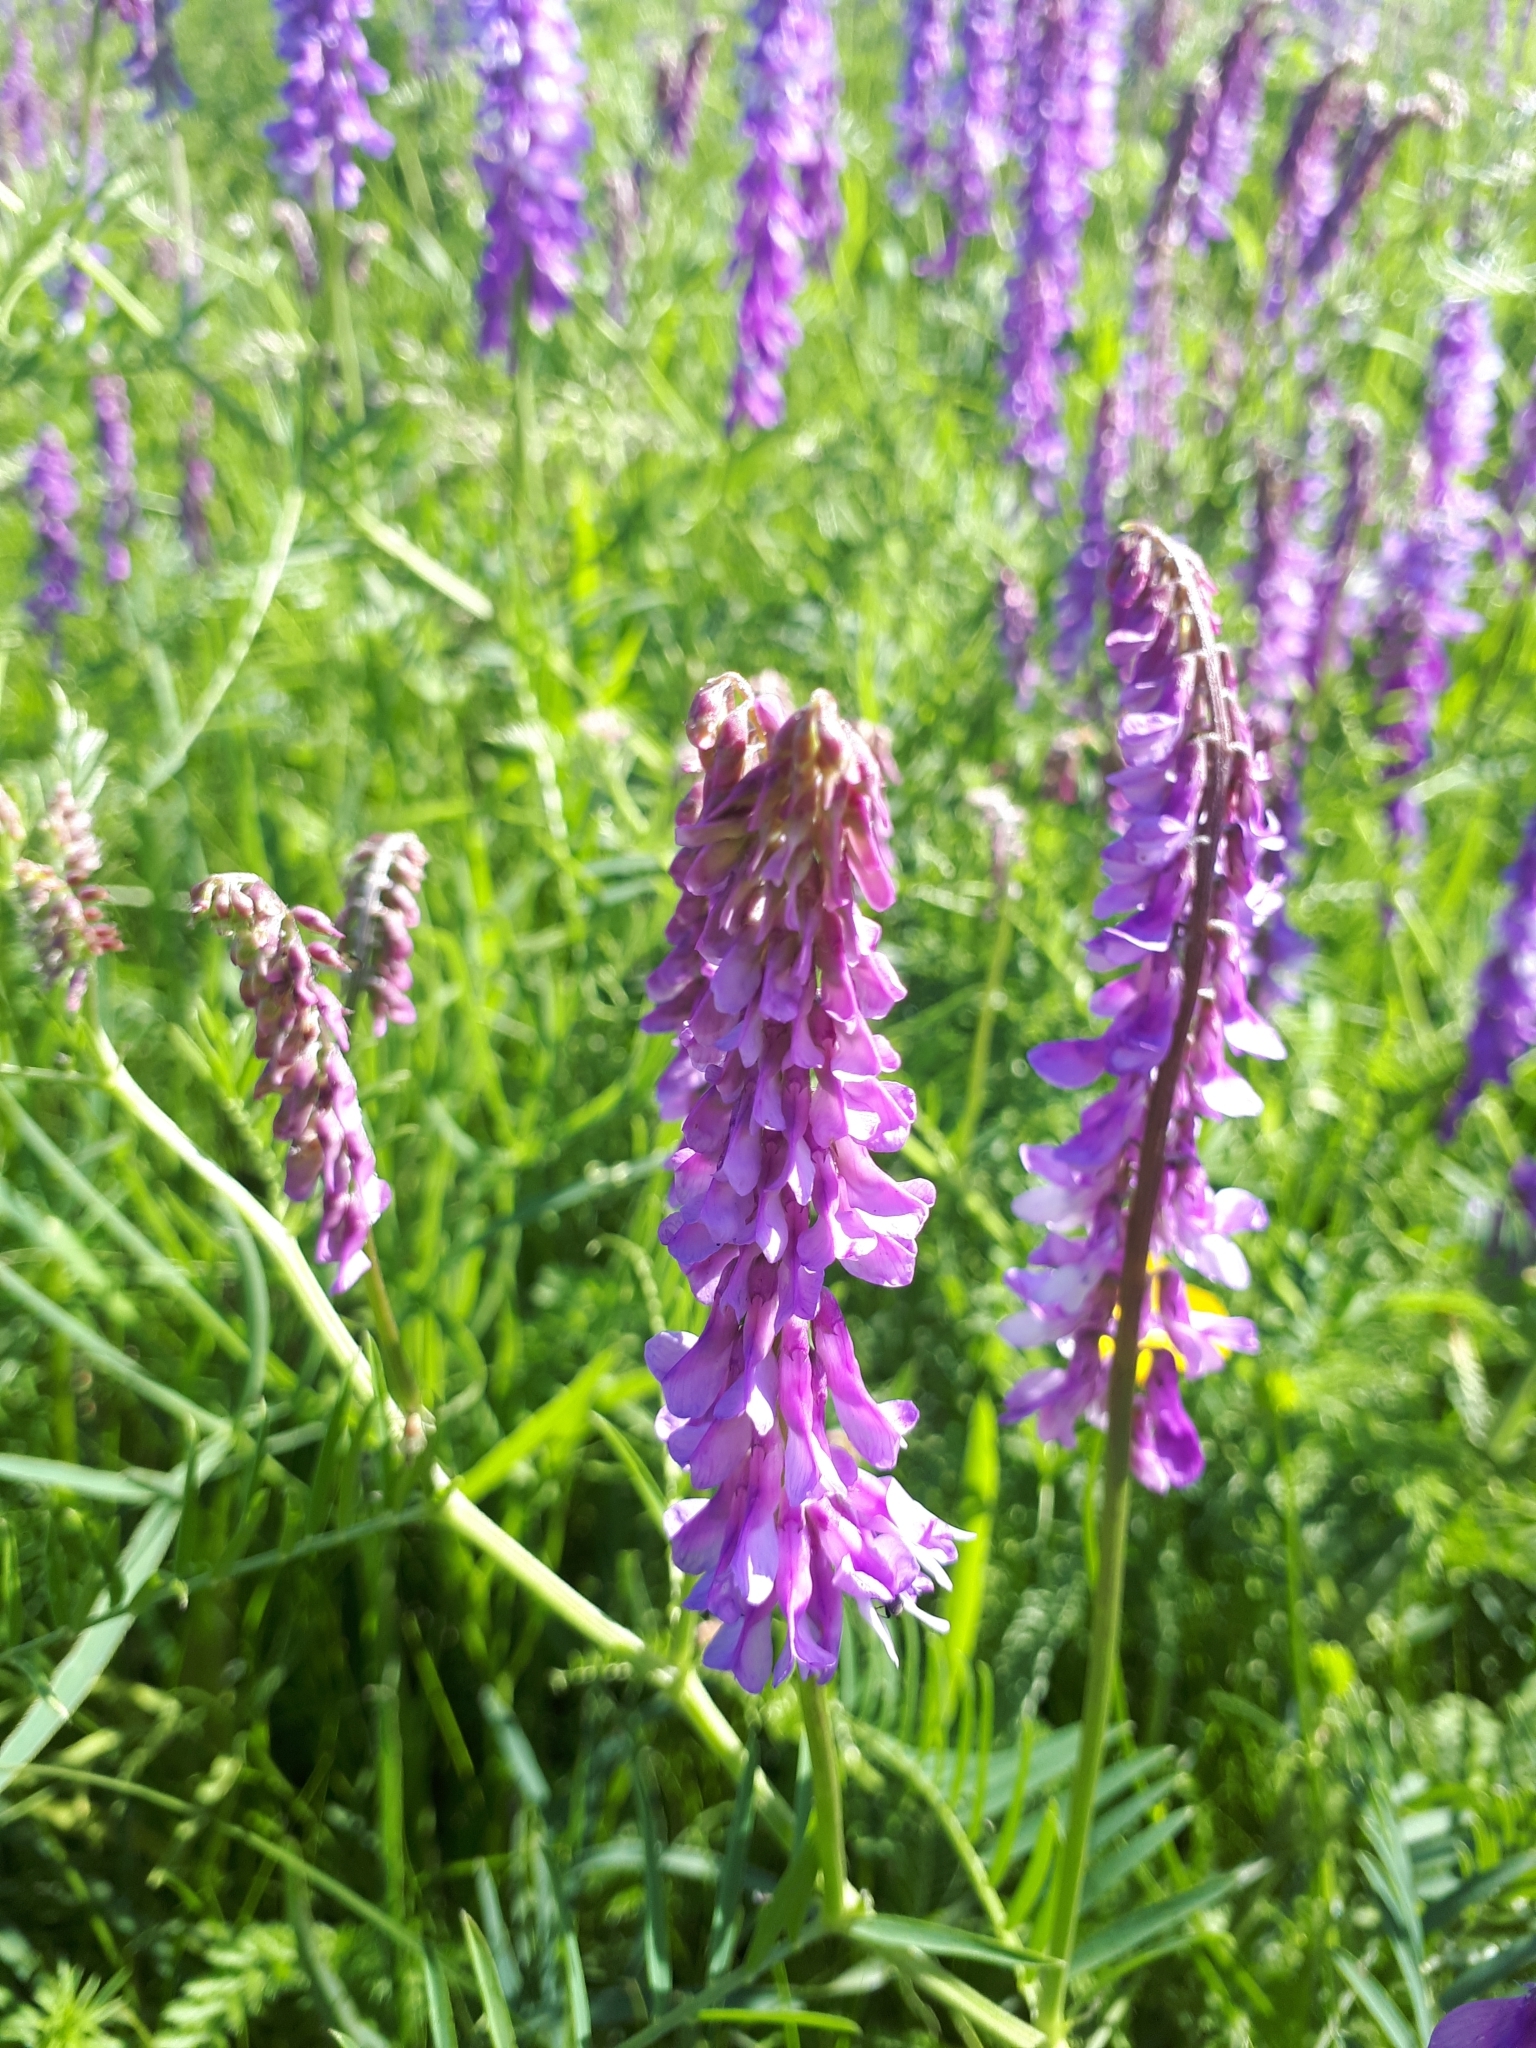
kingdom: Plantae
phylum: Tracheophyta
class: Magnoliopsida
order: Fabales
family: Fabaceae
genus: Vicia
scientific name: Vicia tenuifolia
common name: Fine-leaved vetch
